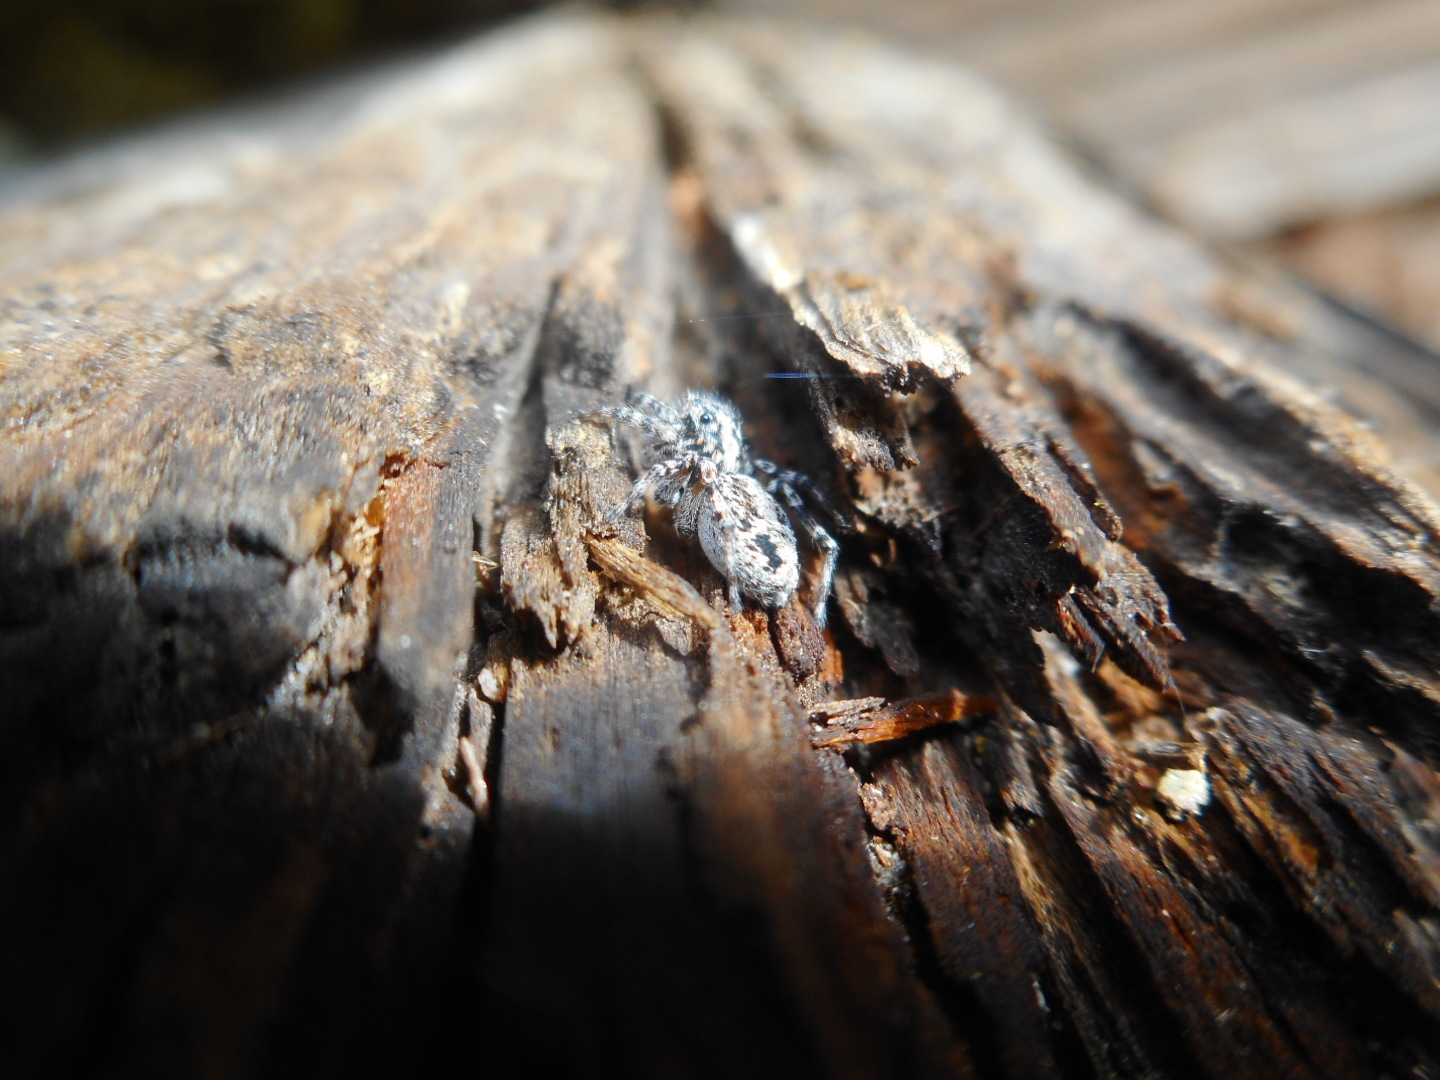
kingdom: Animalia
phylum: Arthropoda
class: Arachnida
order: Araneae
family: Salticidae
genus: Attulus
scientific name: Attulus terebratus
